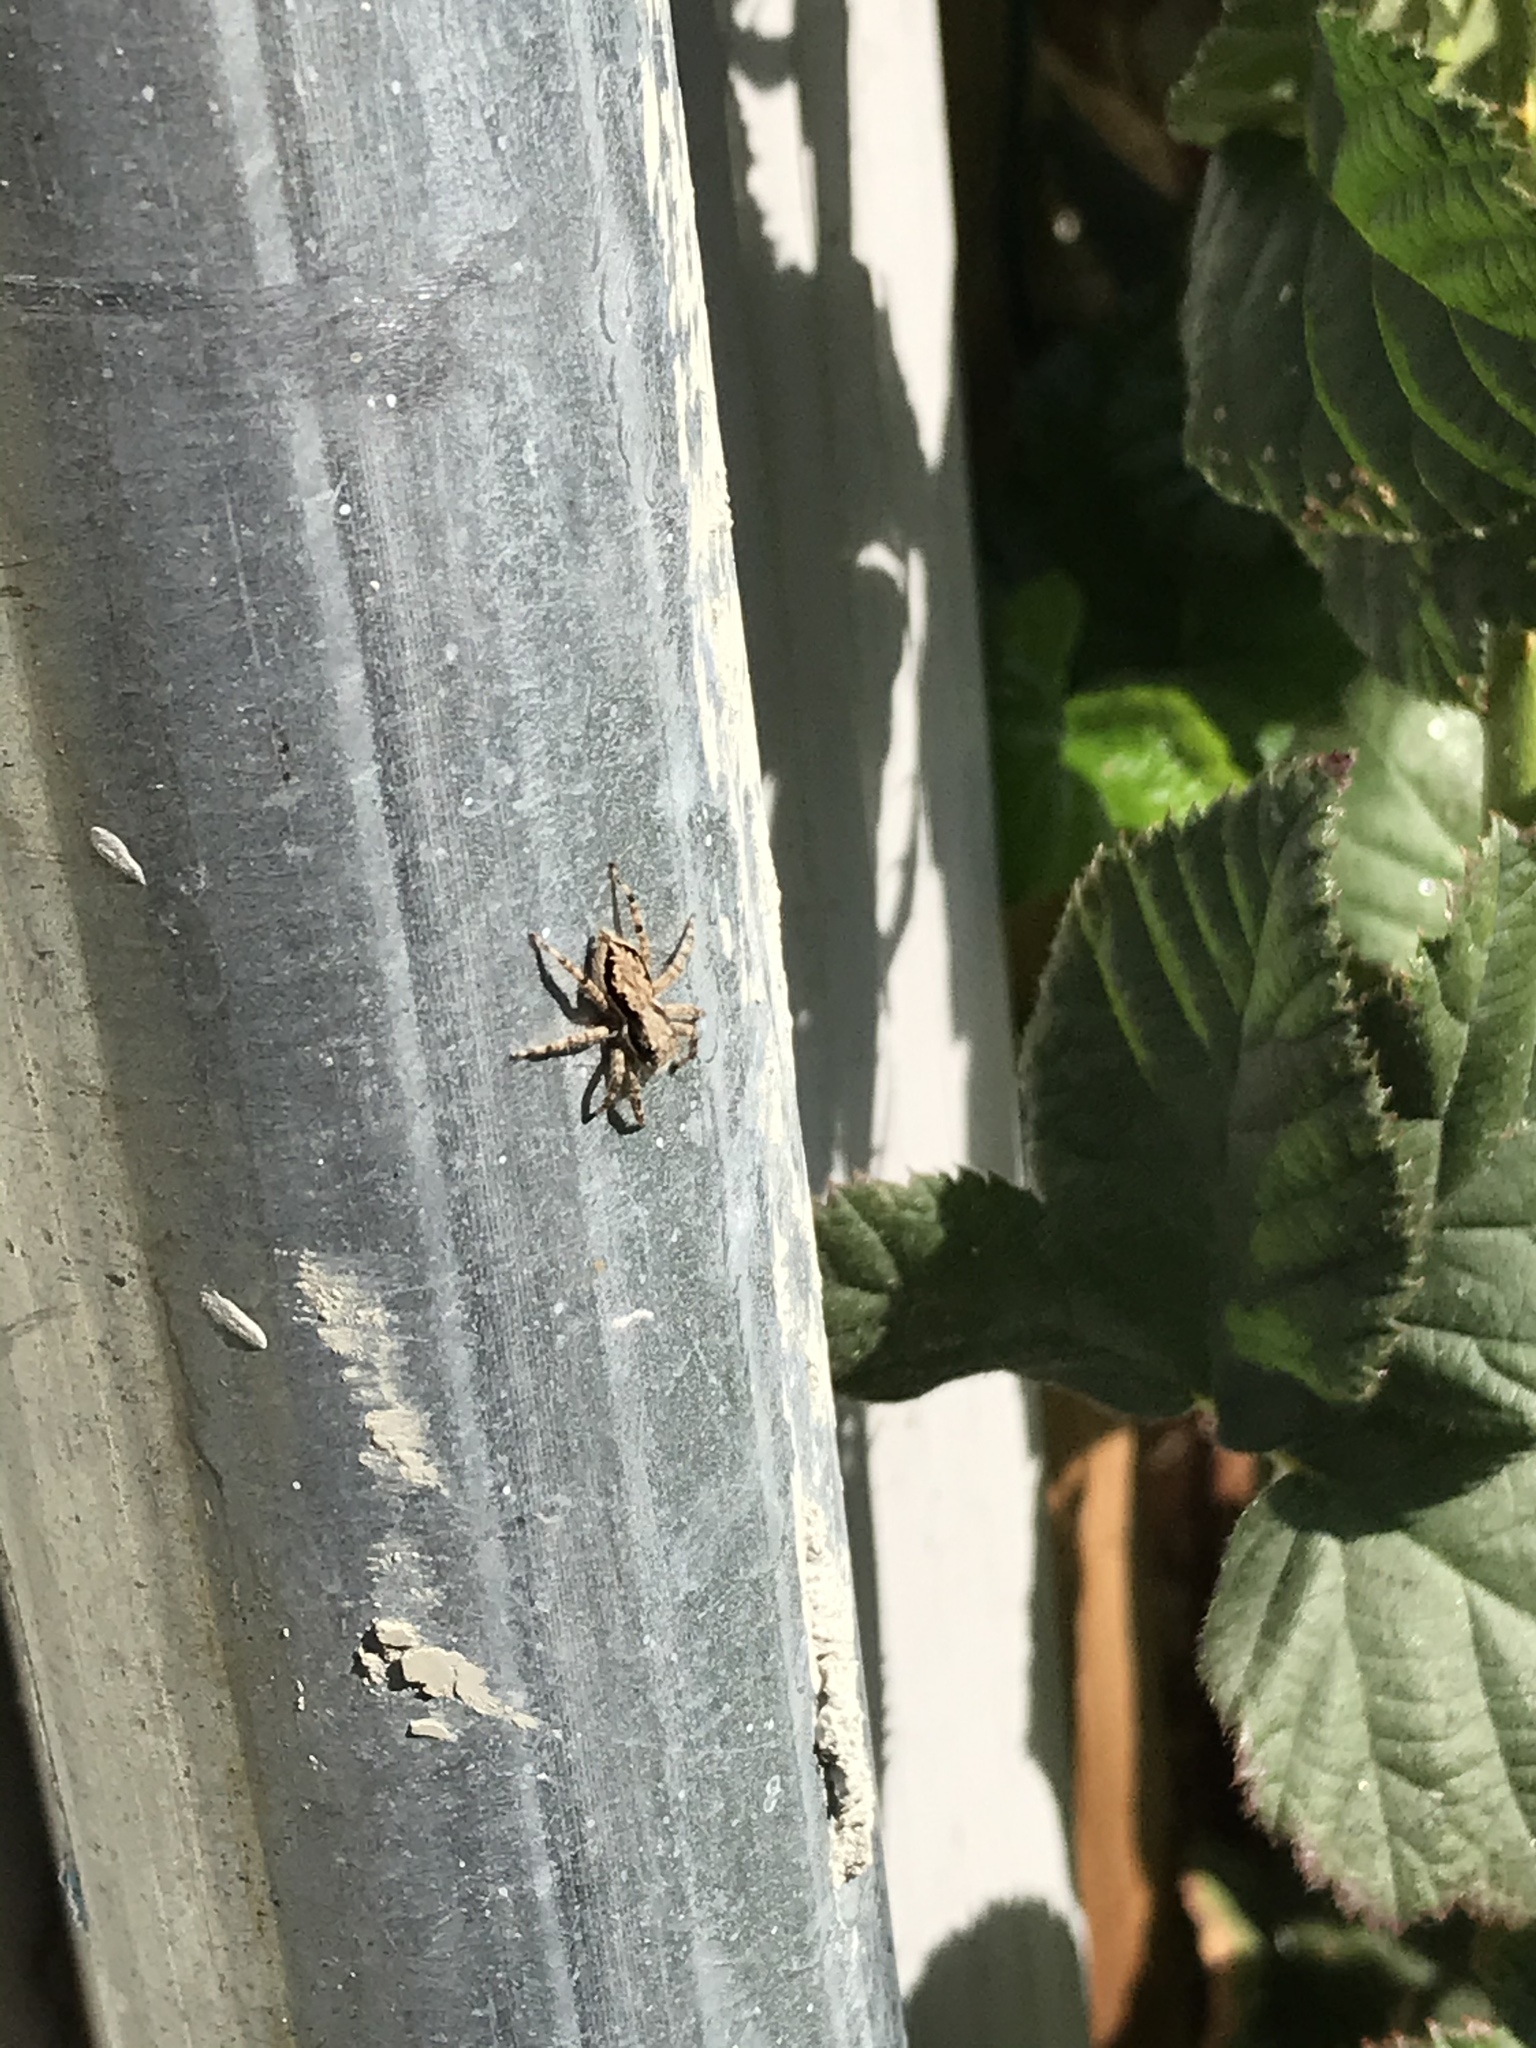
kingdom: Animalia
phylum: Arthropoda
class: Arachnida
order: Araneae
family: Salticidae
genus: Menemerus
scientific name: Menemerus bivittatus
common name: Gray wall jumper
